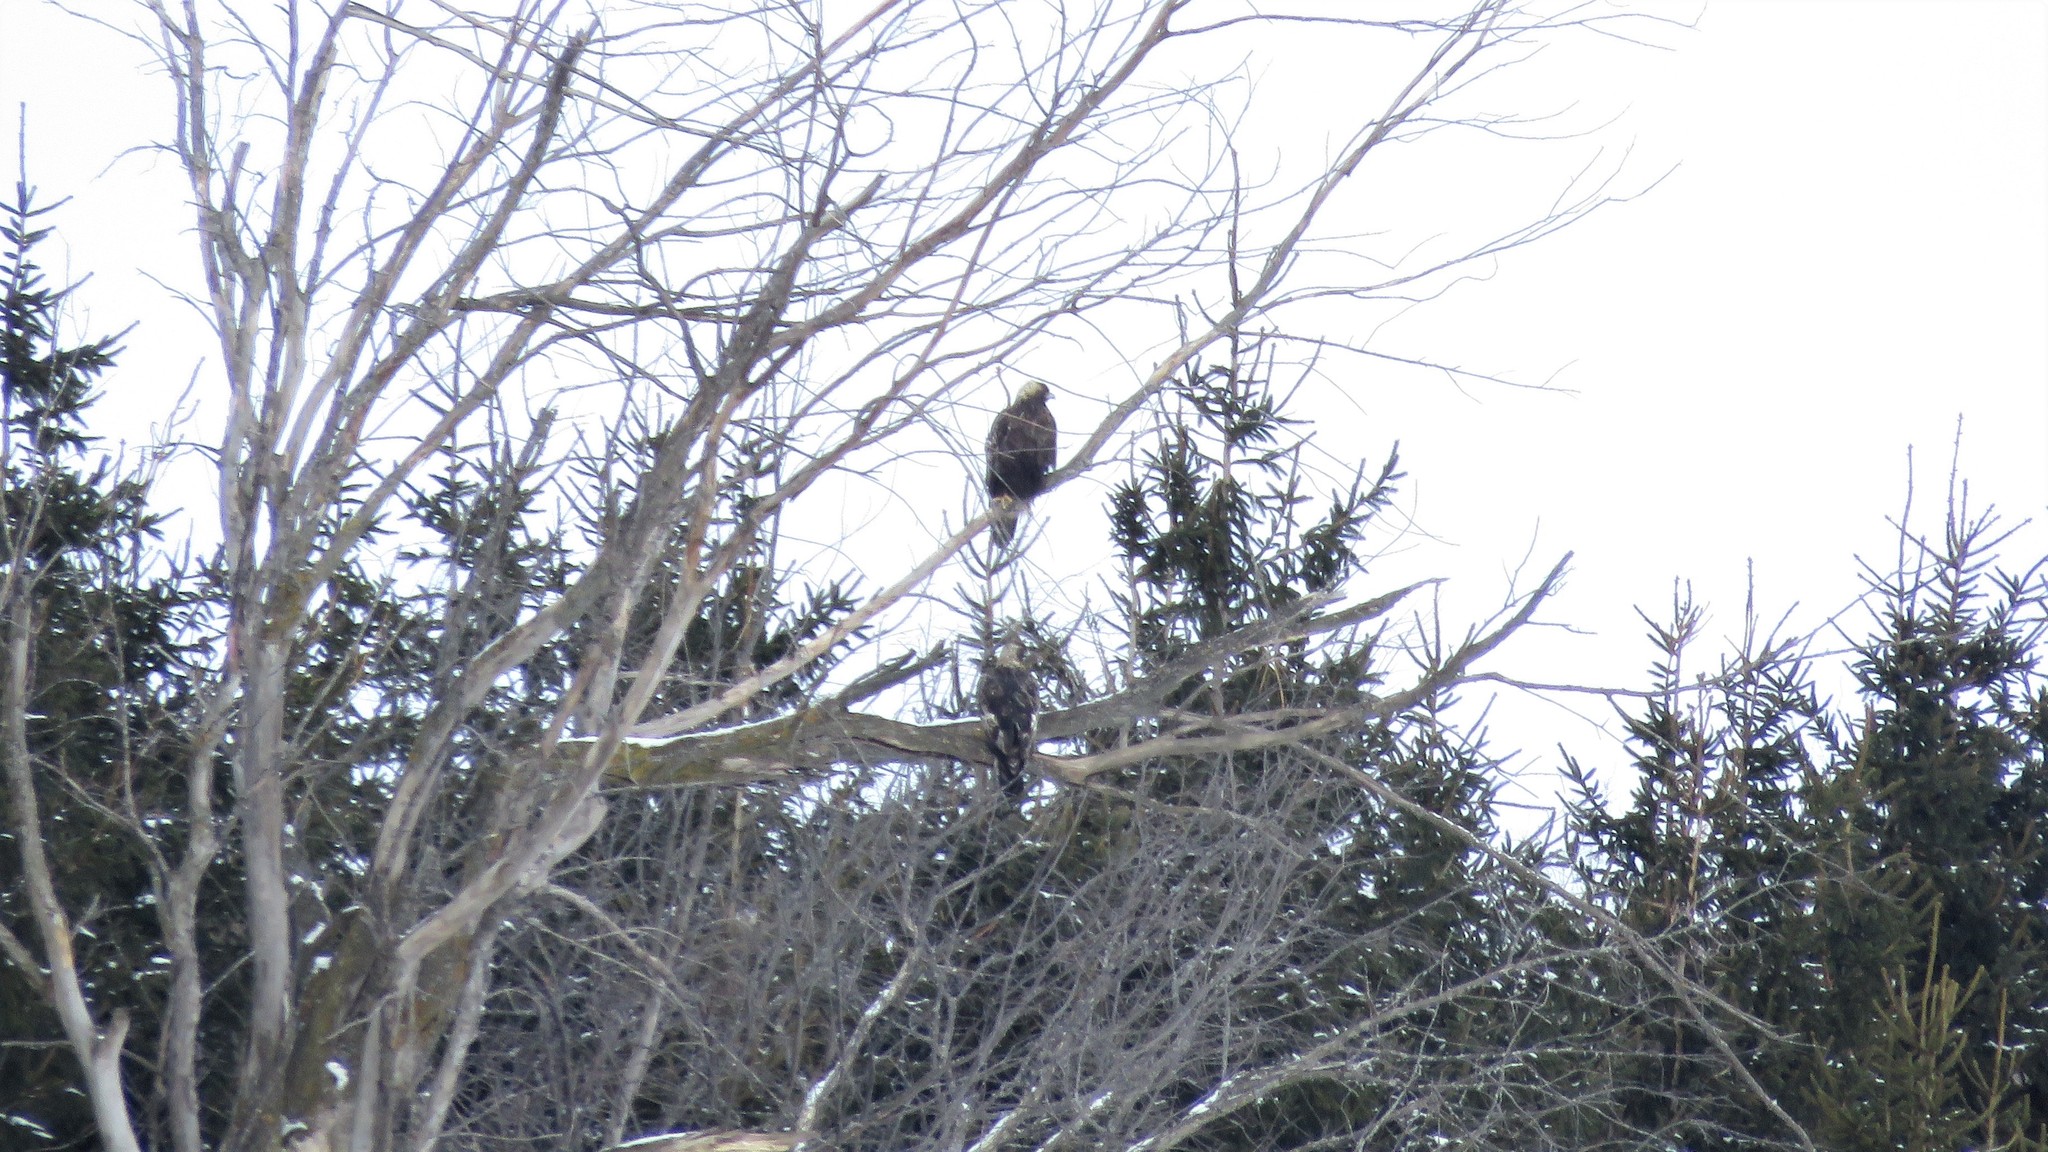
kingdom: Animalia
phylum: Chordata
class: Aves
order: Accipitriformes
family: Accipitridae
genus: Aquila
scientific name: Aquila chrysaetos
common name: Golden eagle
